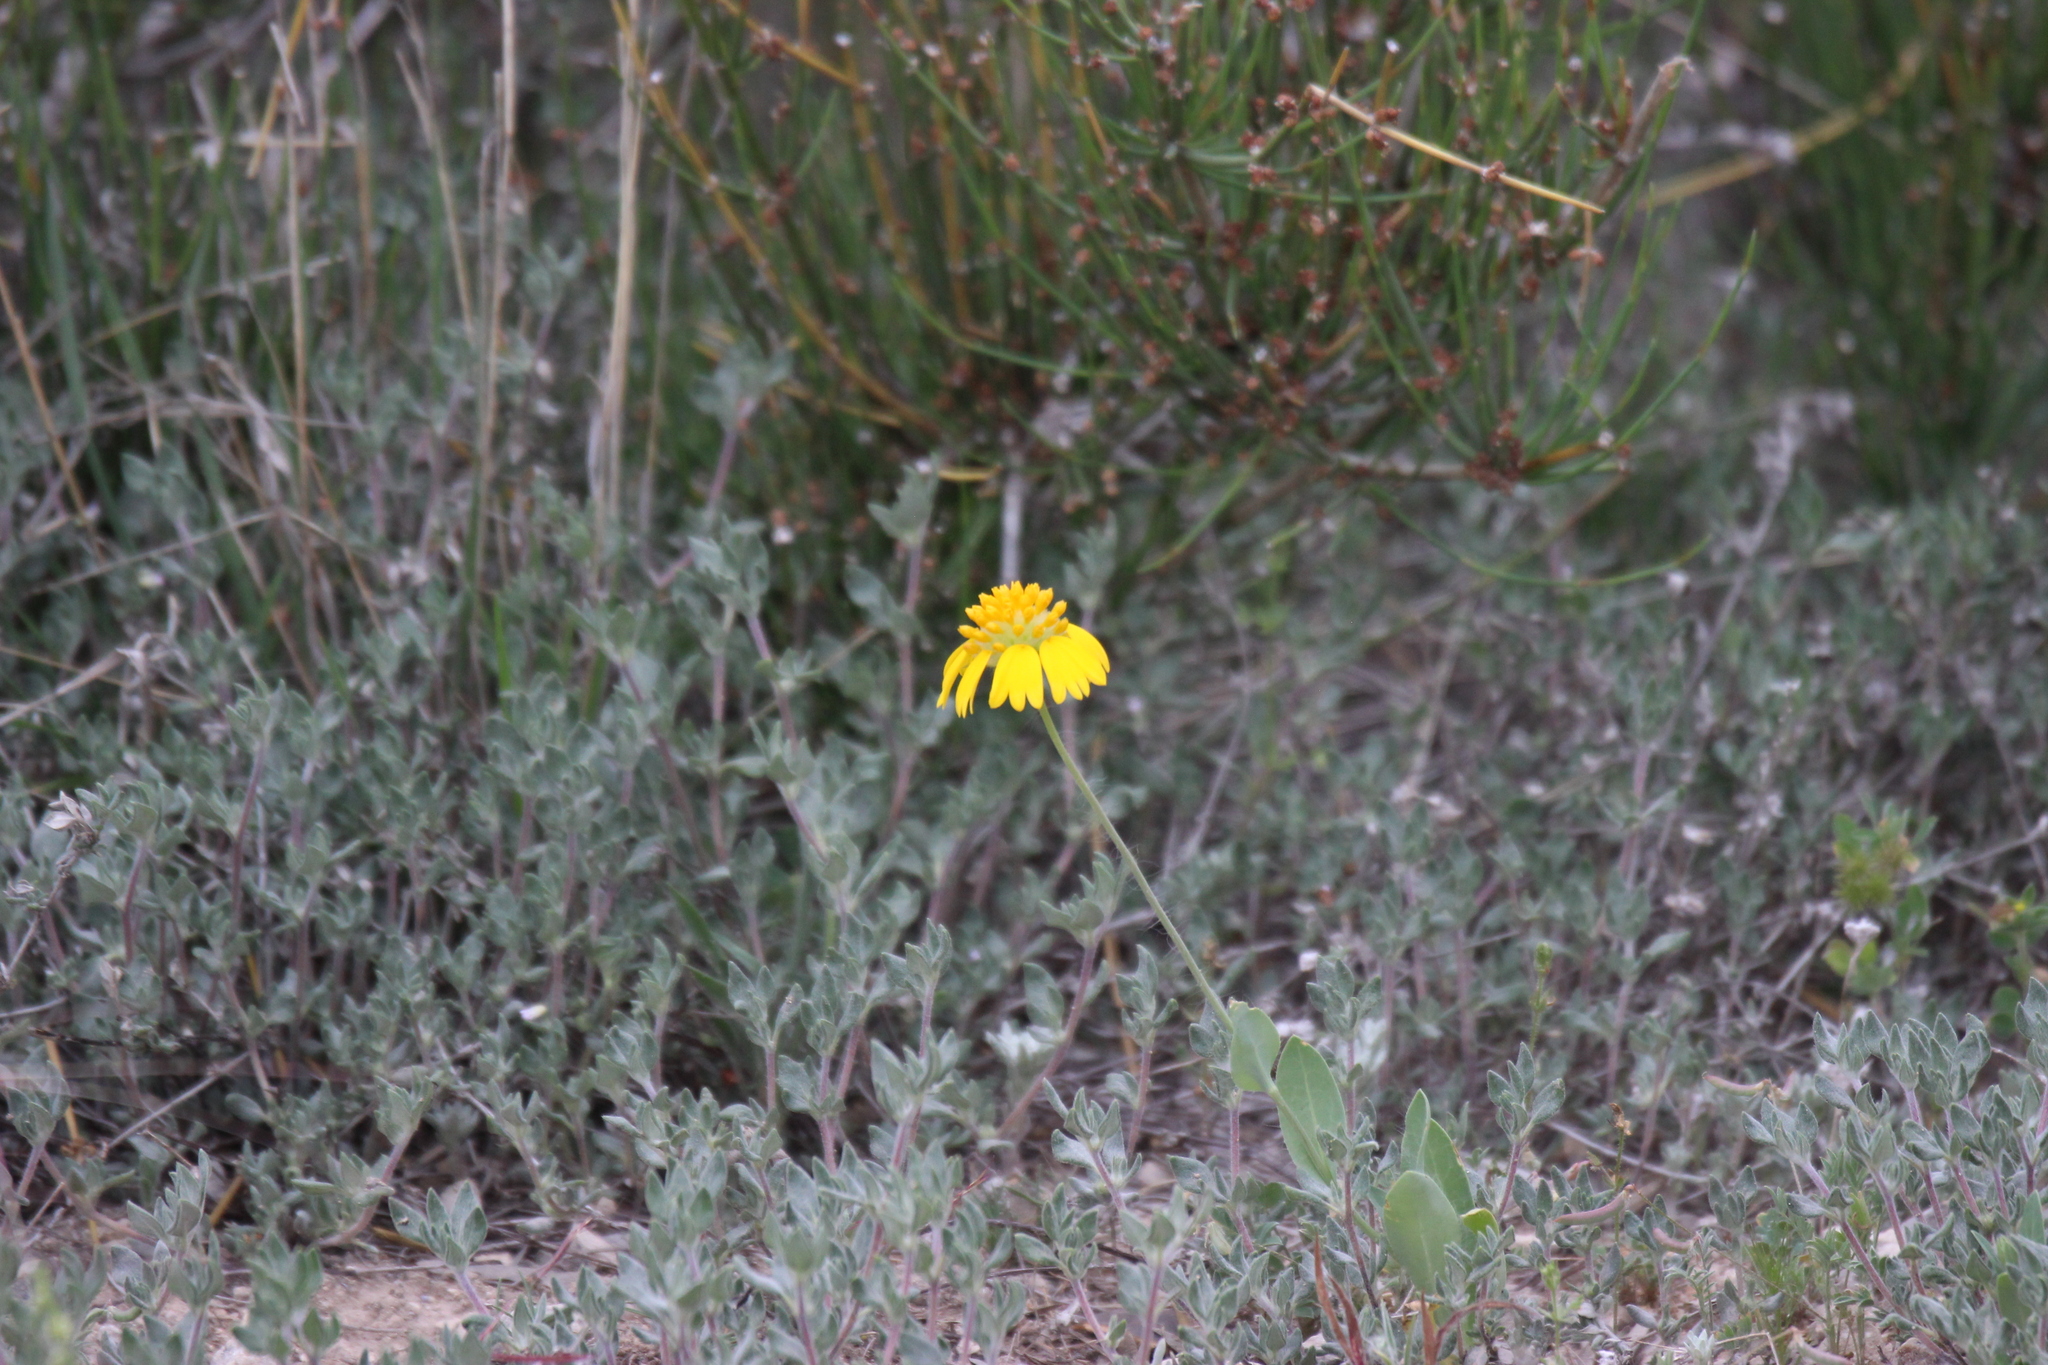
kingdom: Plantae
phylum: Tracheophyta
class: Magnoliopsida
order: Asterales
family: Asteraceae
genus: Amblyolepis
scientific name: Amblyolepis setigera
